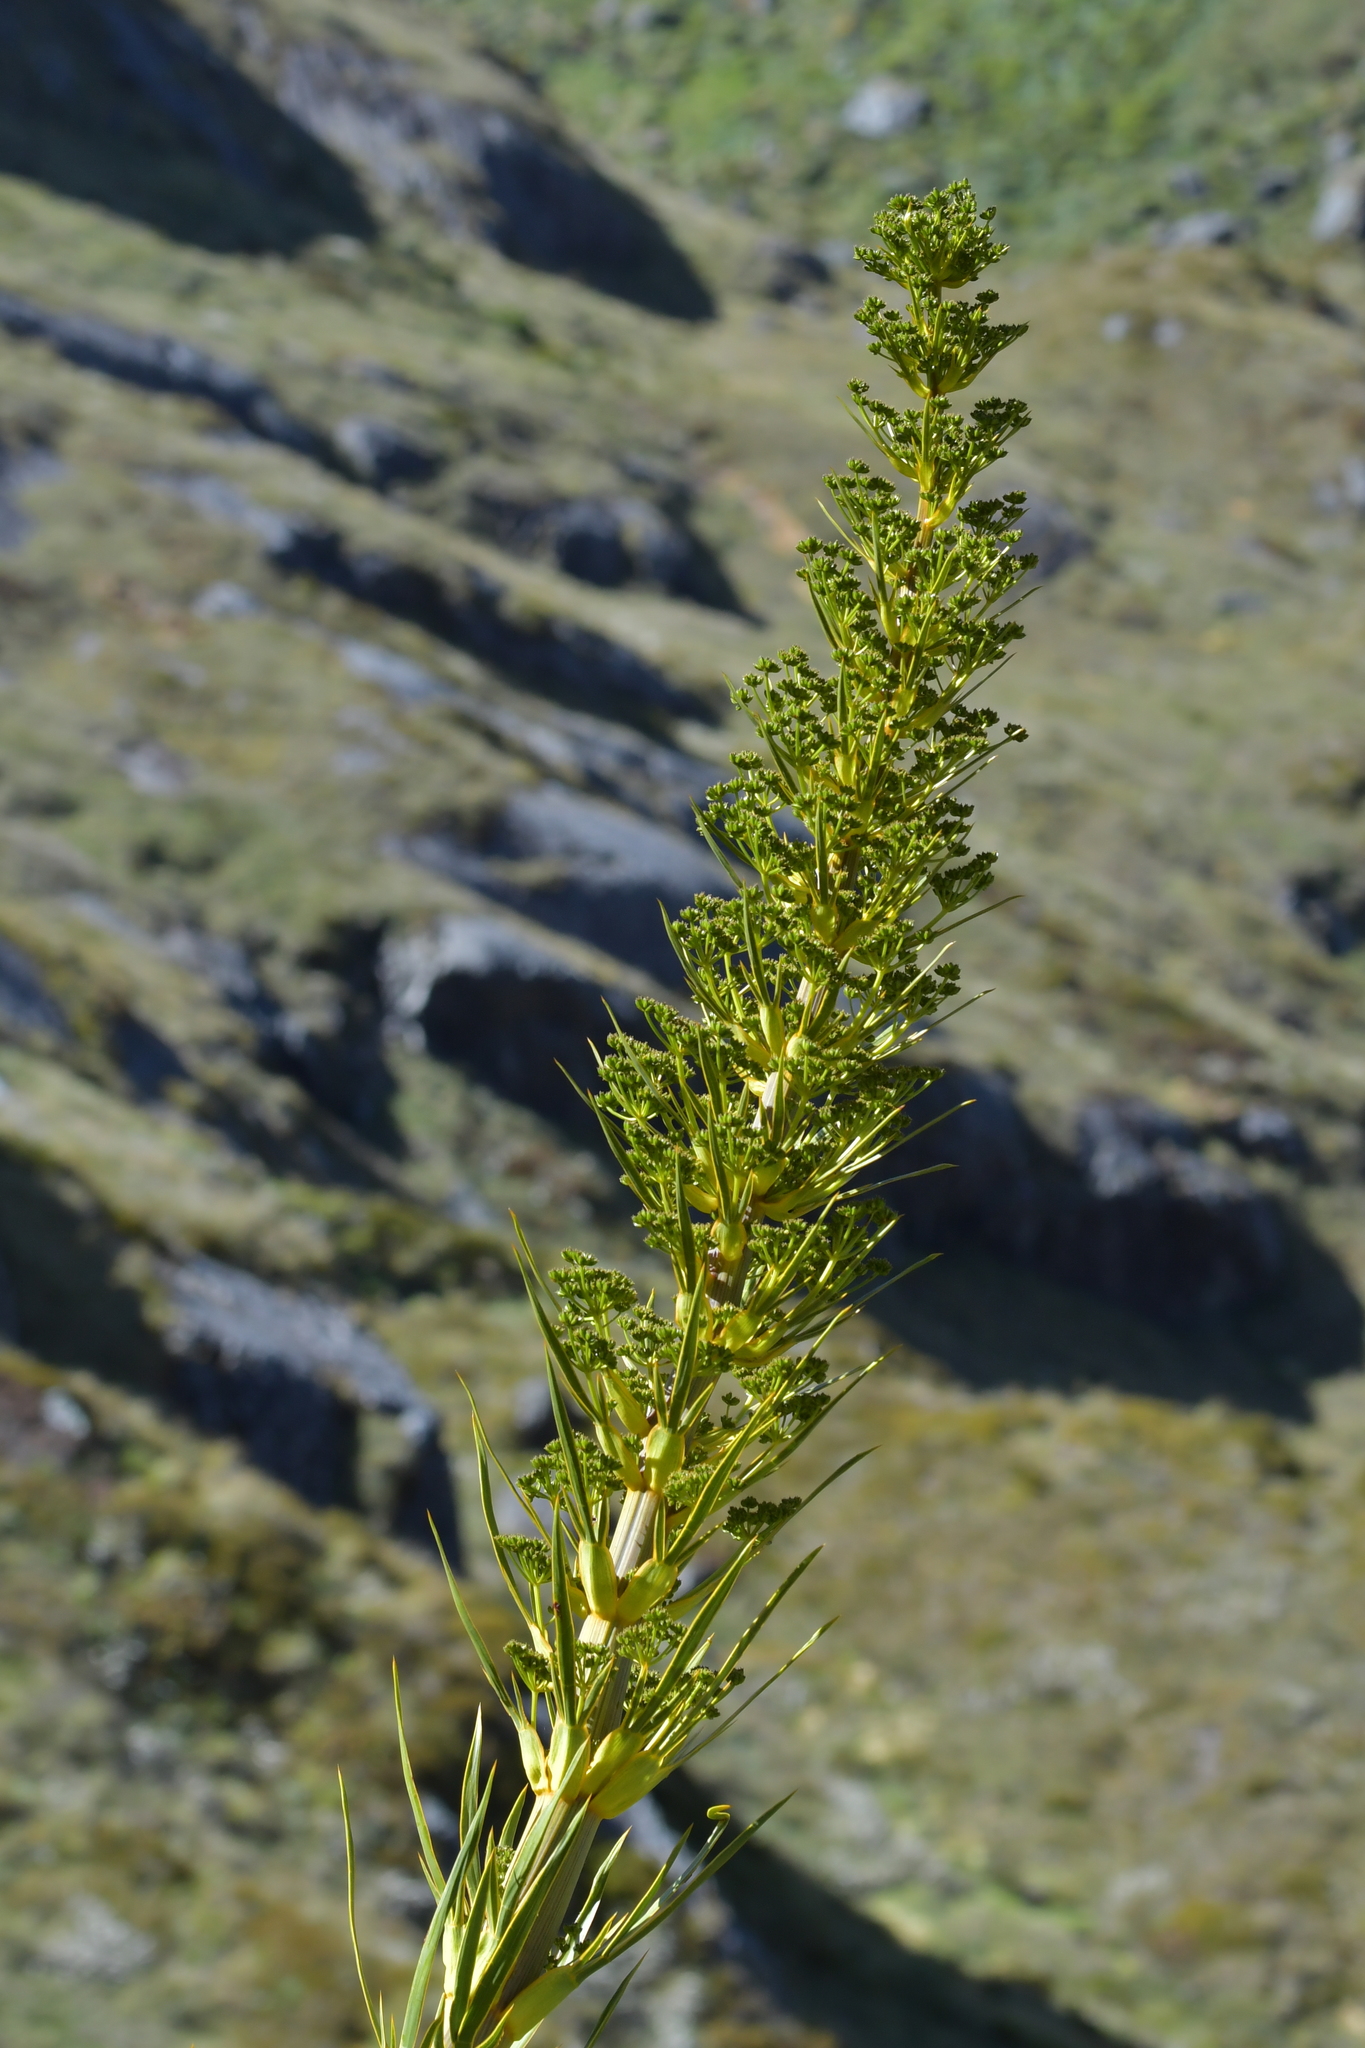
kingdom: Plantae
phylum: Tracheophyta
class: Magnoliopsida
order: Apiales
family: Apiaceae
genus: Aciphylla
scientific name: Aciphylla horrida
